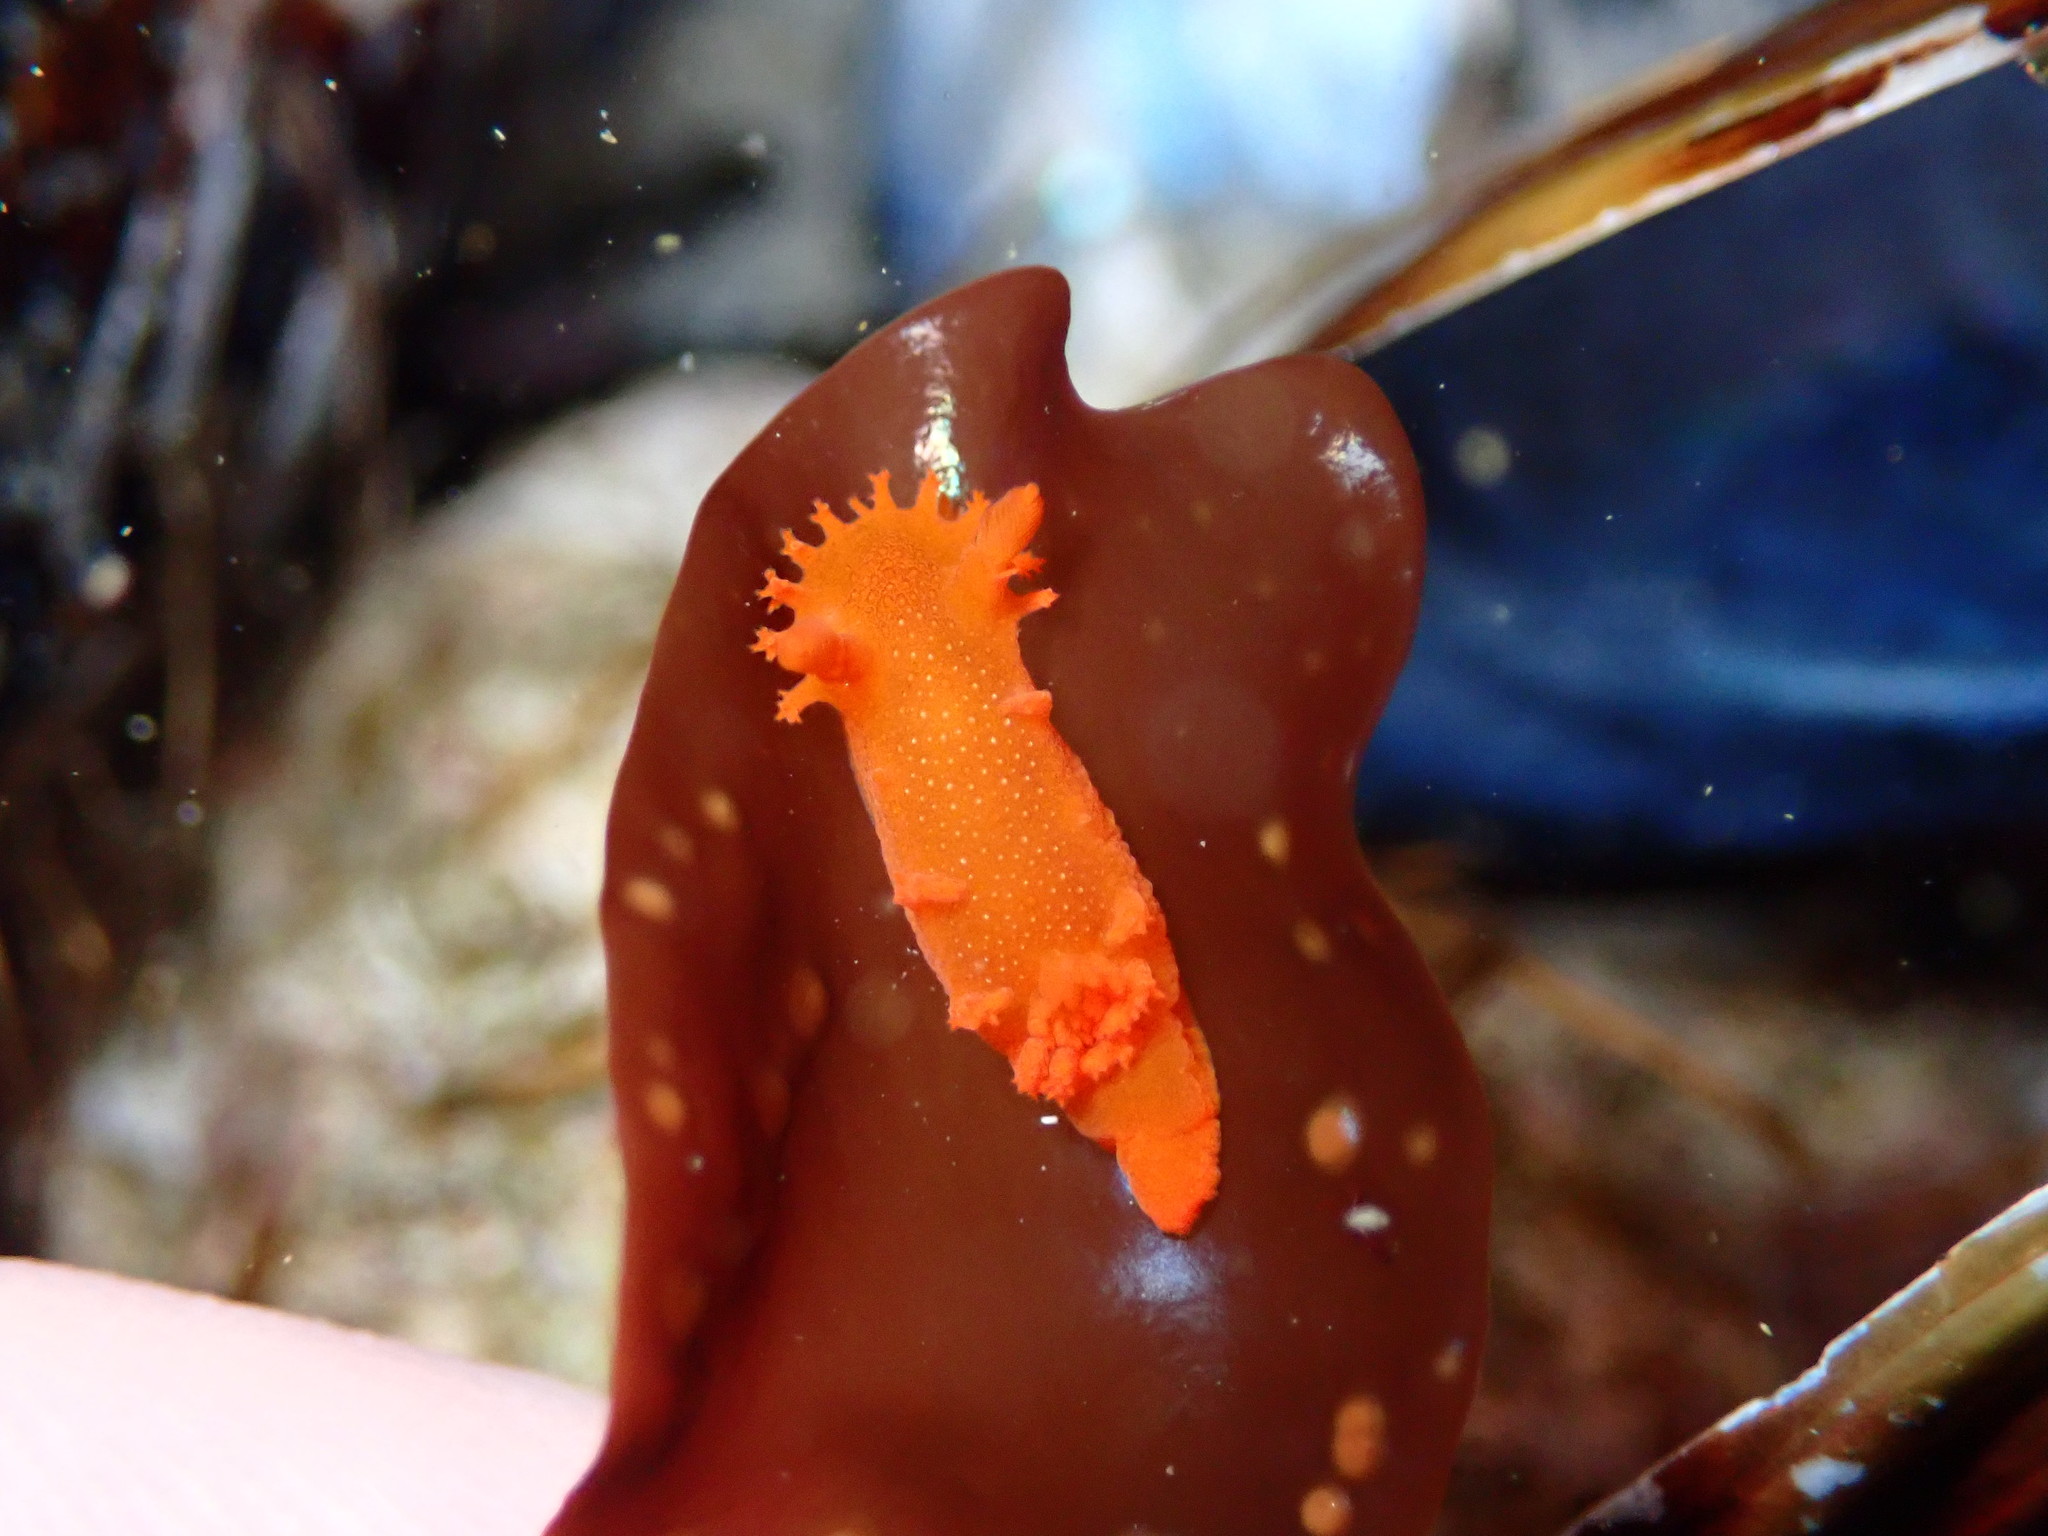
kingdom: Animalia
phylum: Mollusca
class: Gastropoda
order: Nudibranchia
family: Polyceridae
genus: Triopha
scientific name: Triopha maculata
